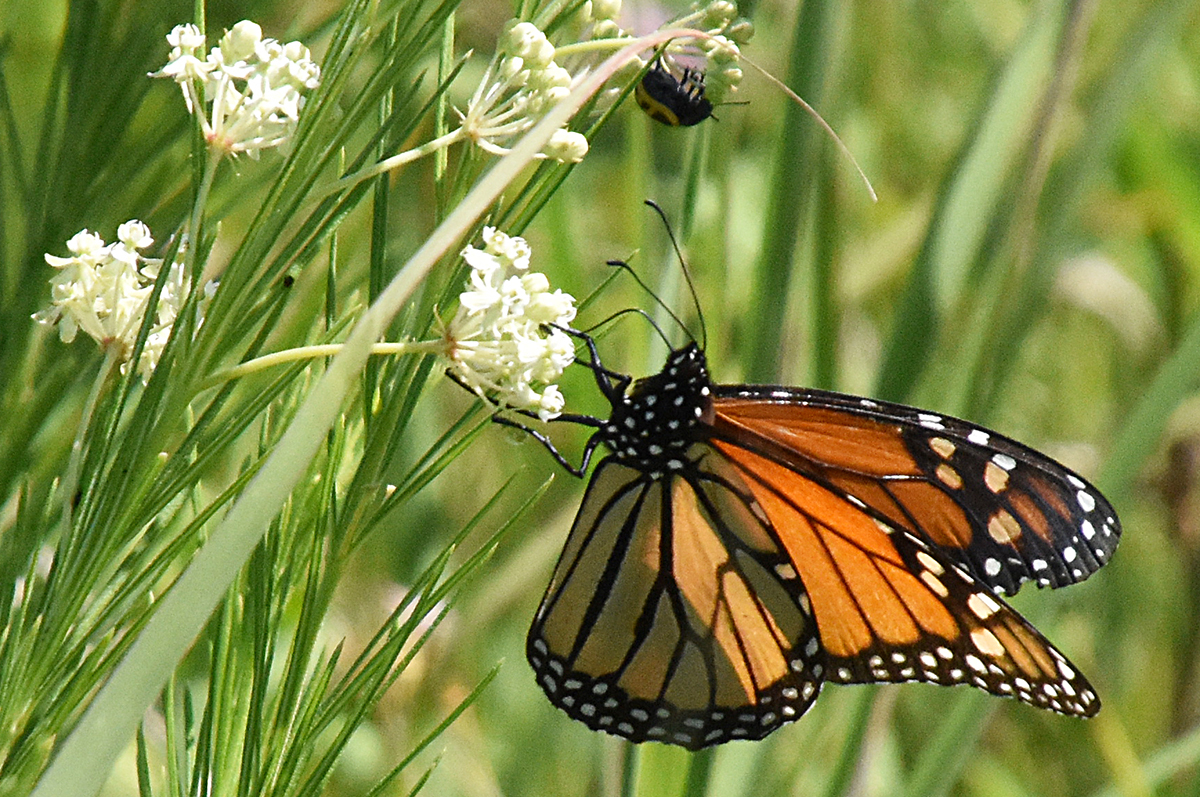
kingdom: Animalia
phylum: Arthropoda
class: Insecta
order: Lepidoptera
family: Nymphalidae
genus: Danaus
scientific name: Danaus plexippus
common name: Monarch
